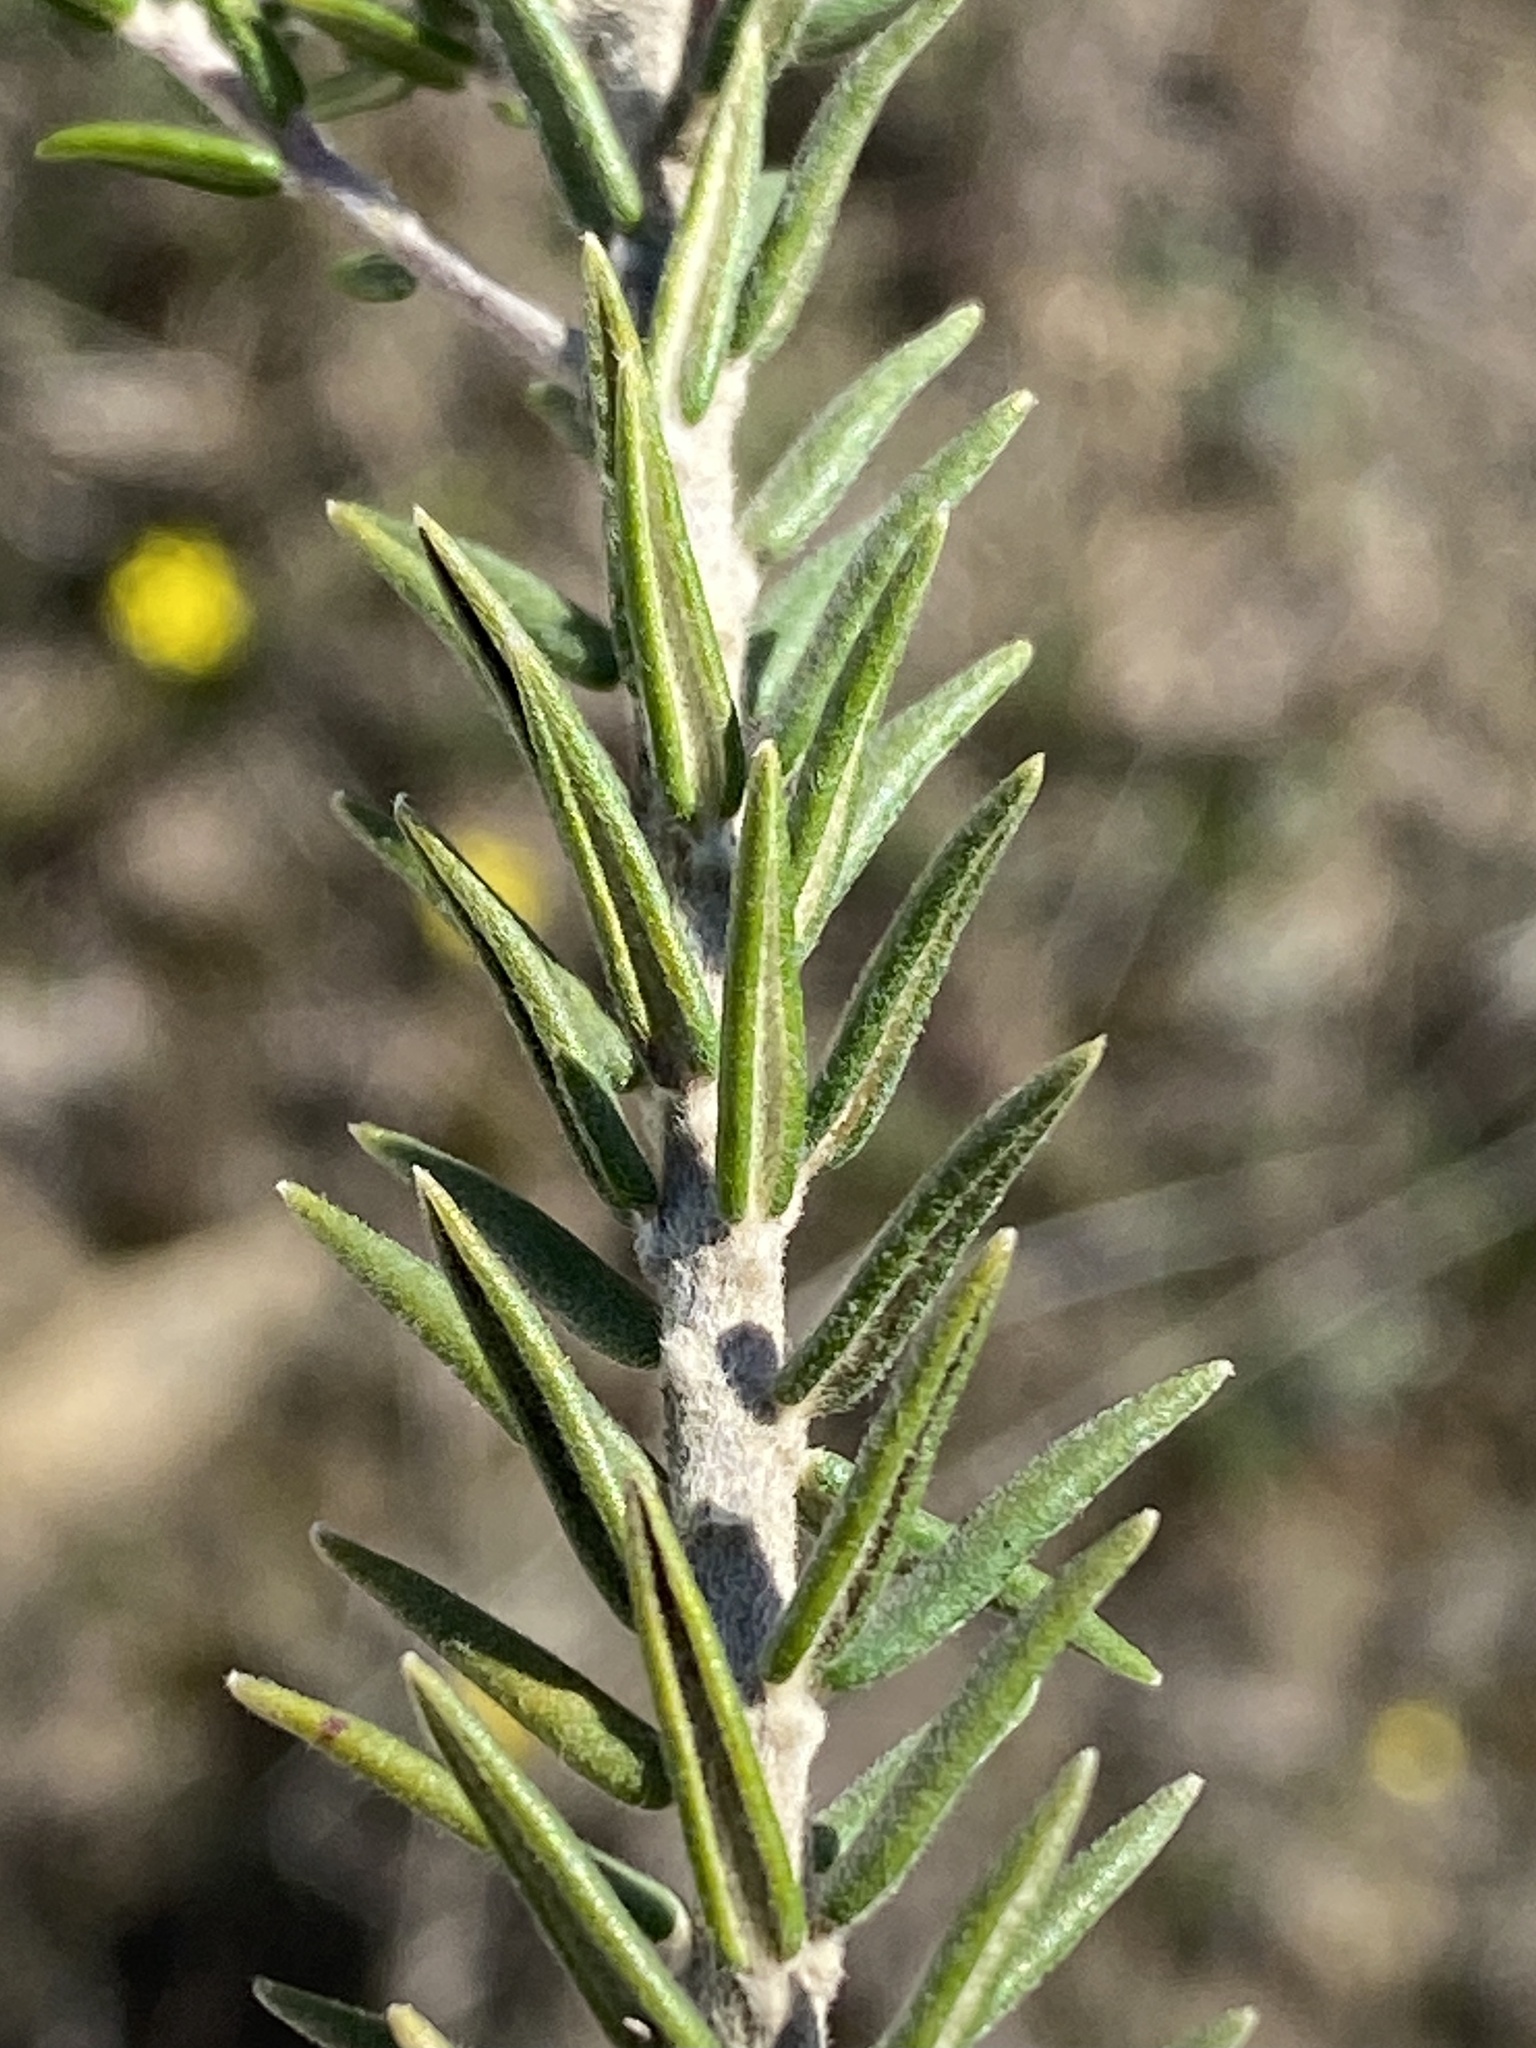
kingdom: Plantae
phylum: Tracheophyta
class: Magnoliopsida
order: Rosales
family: Rhamnaceae
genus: Phylica
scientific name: Phylica elimensis
